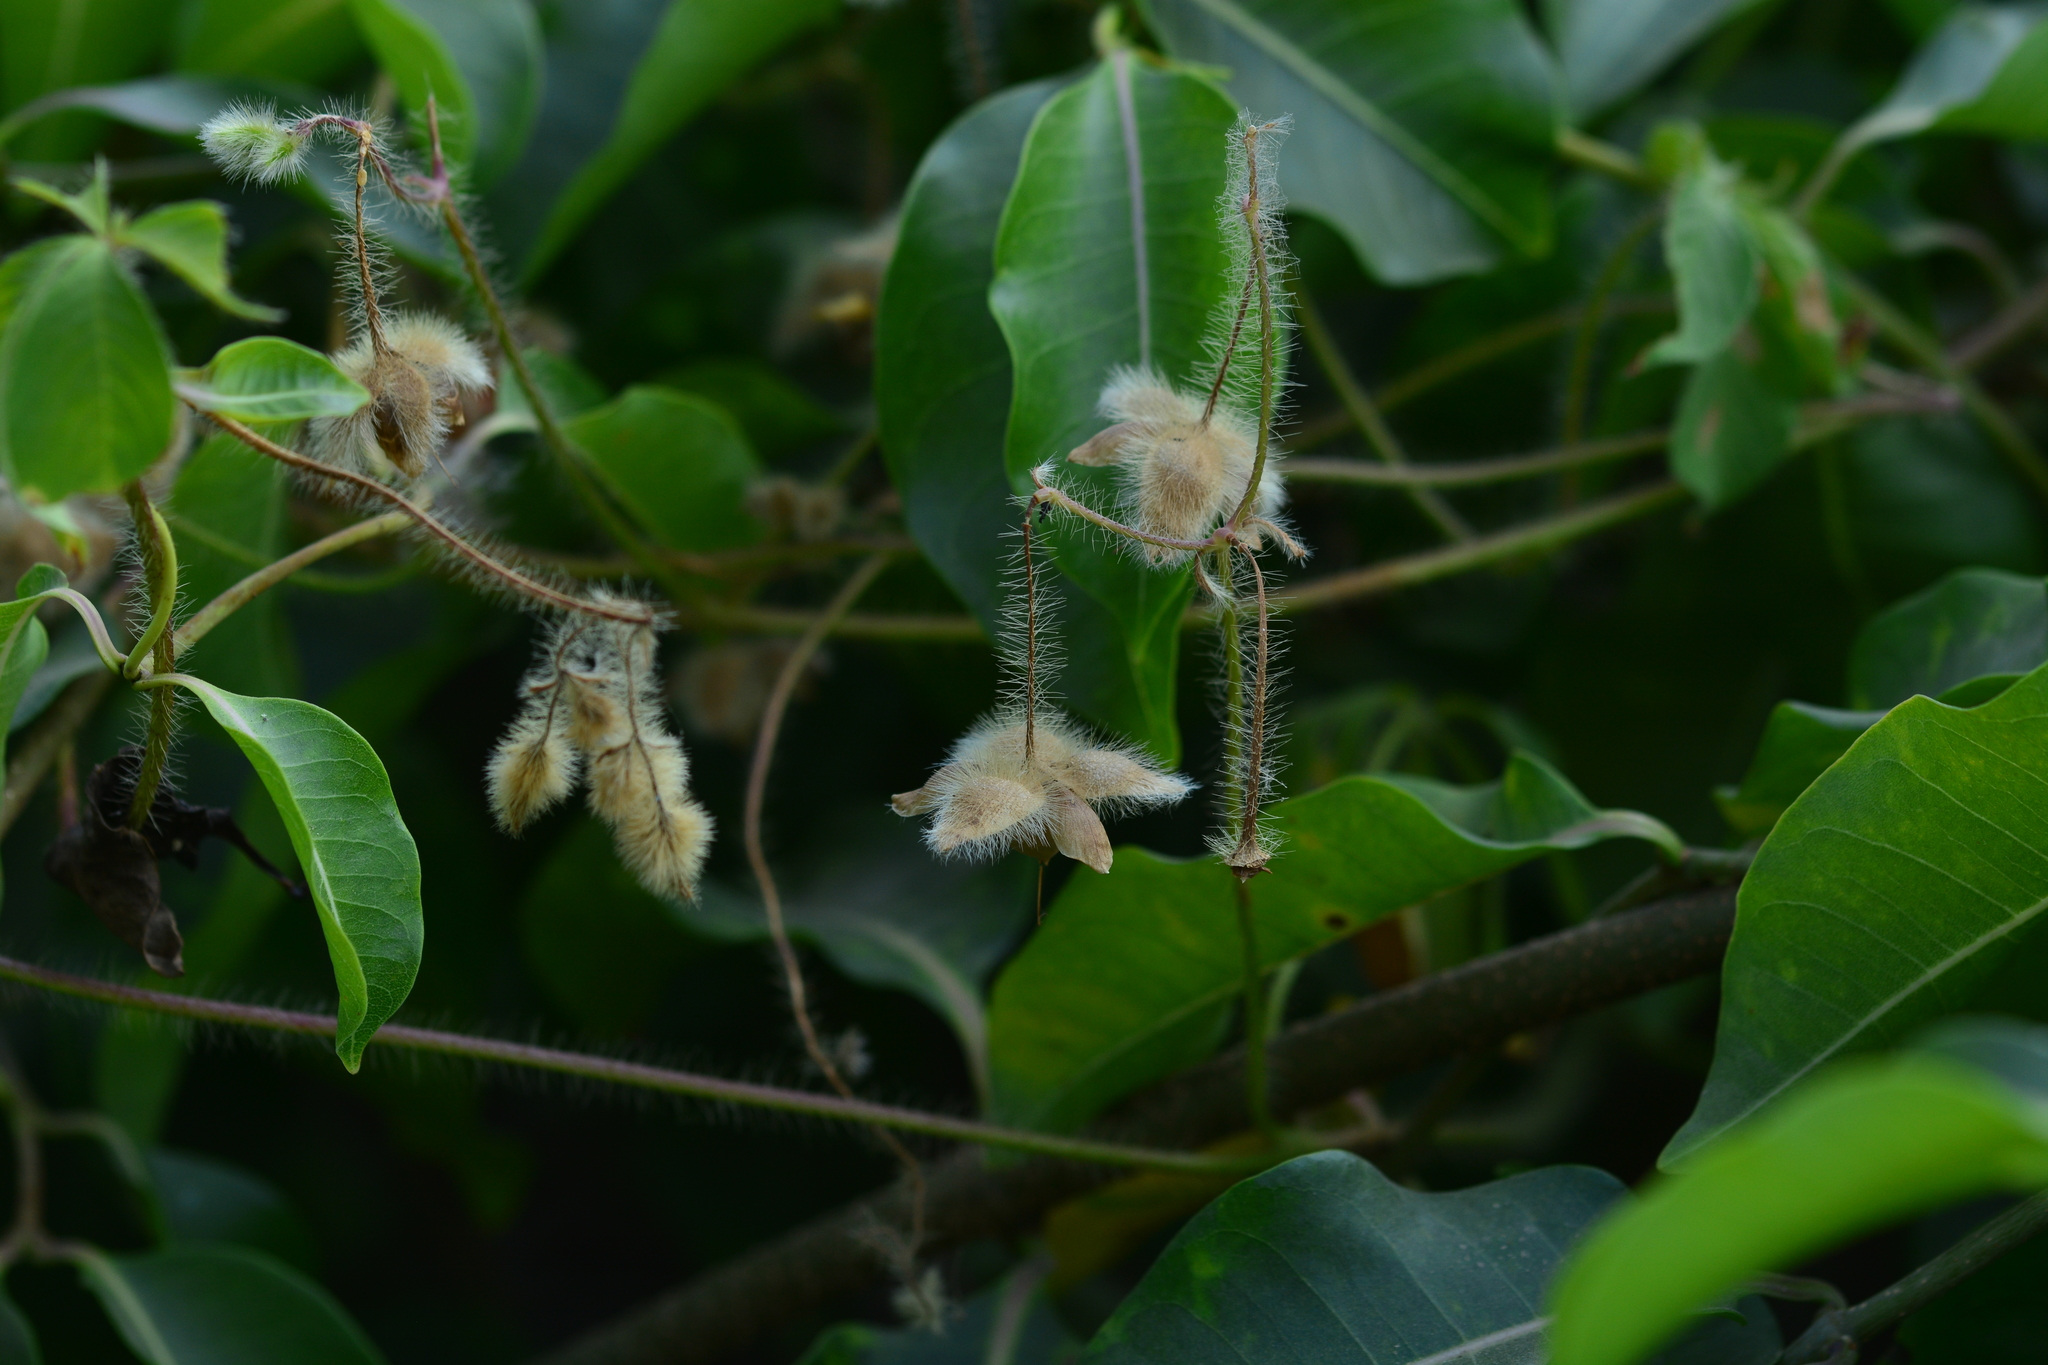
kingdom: Plantae
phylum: Tracheophyta
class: Magnoliopsida
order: Solanales
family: Convolvulaceae
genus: Distimake
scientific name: Distimake aegyptius
